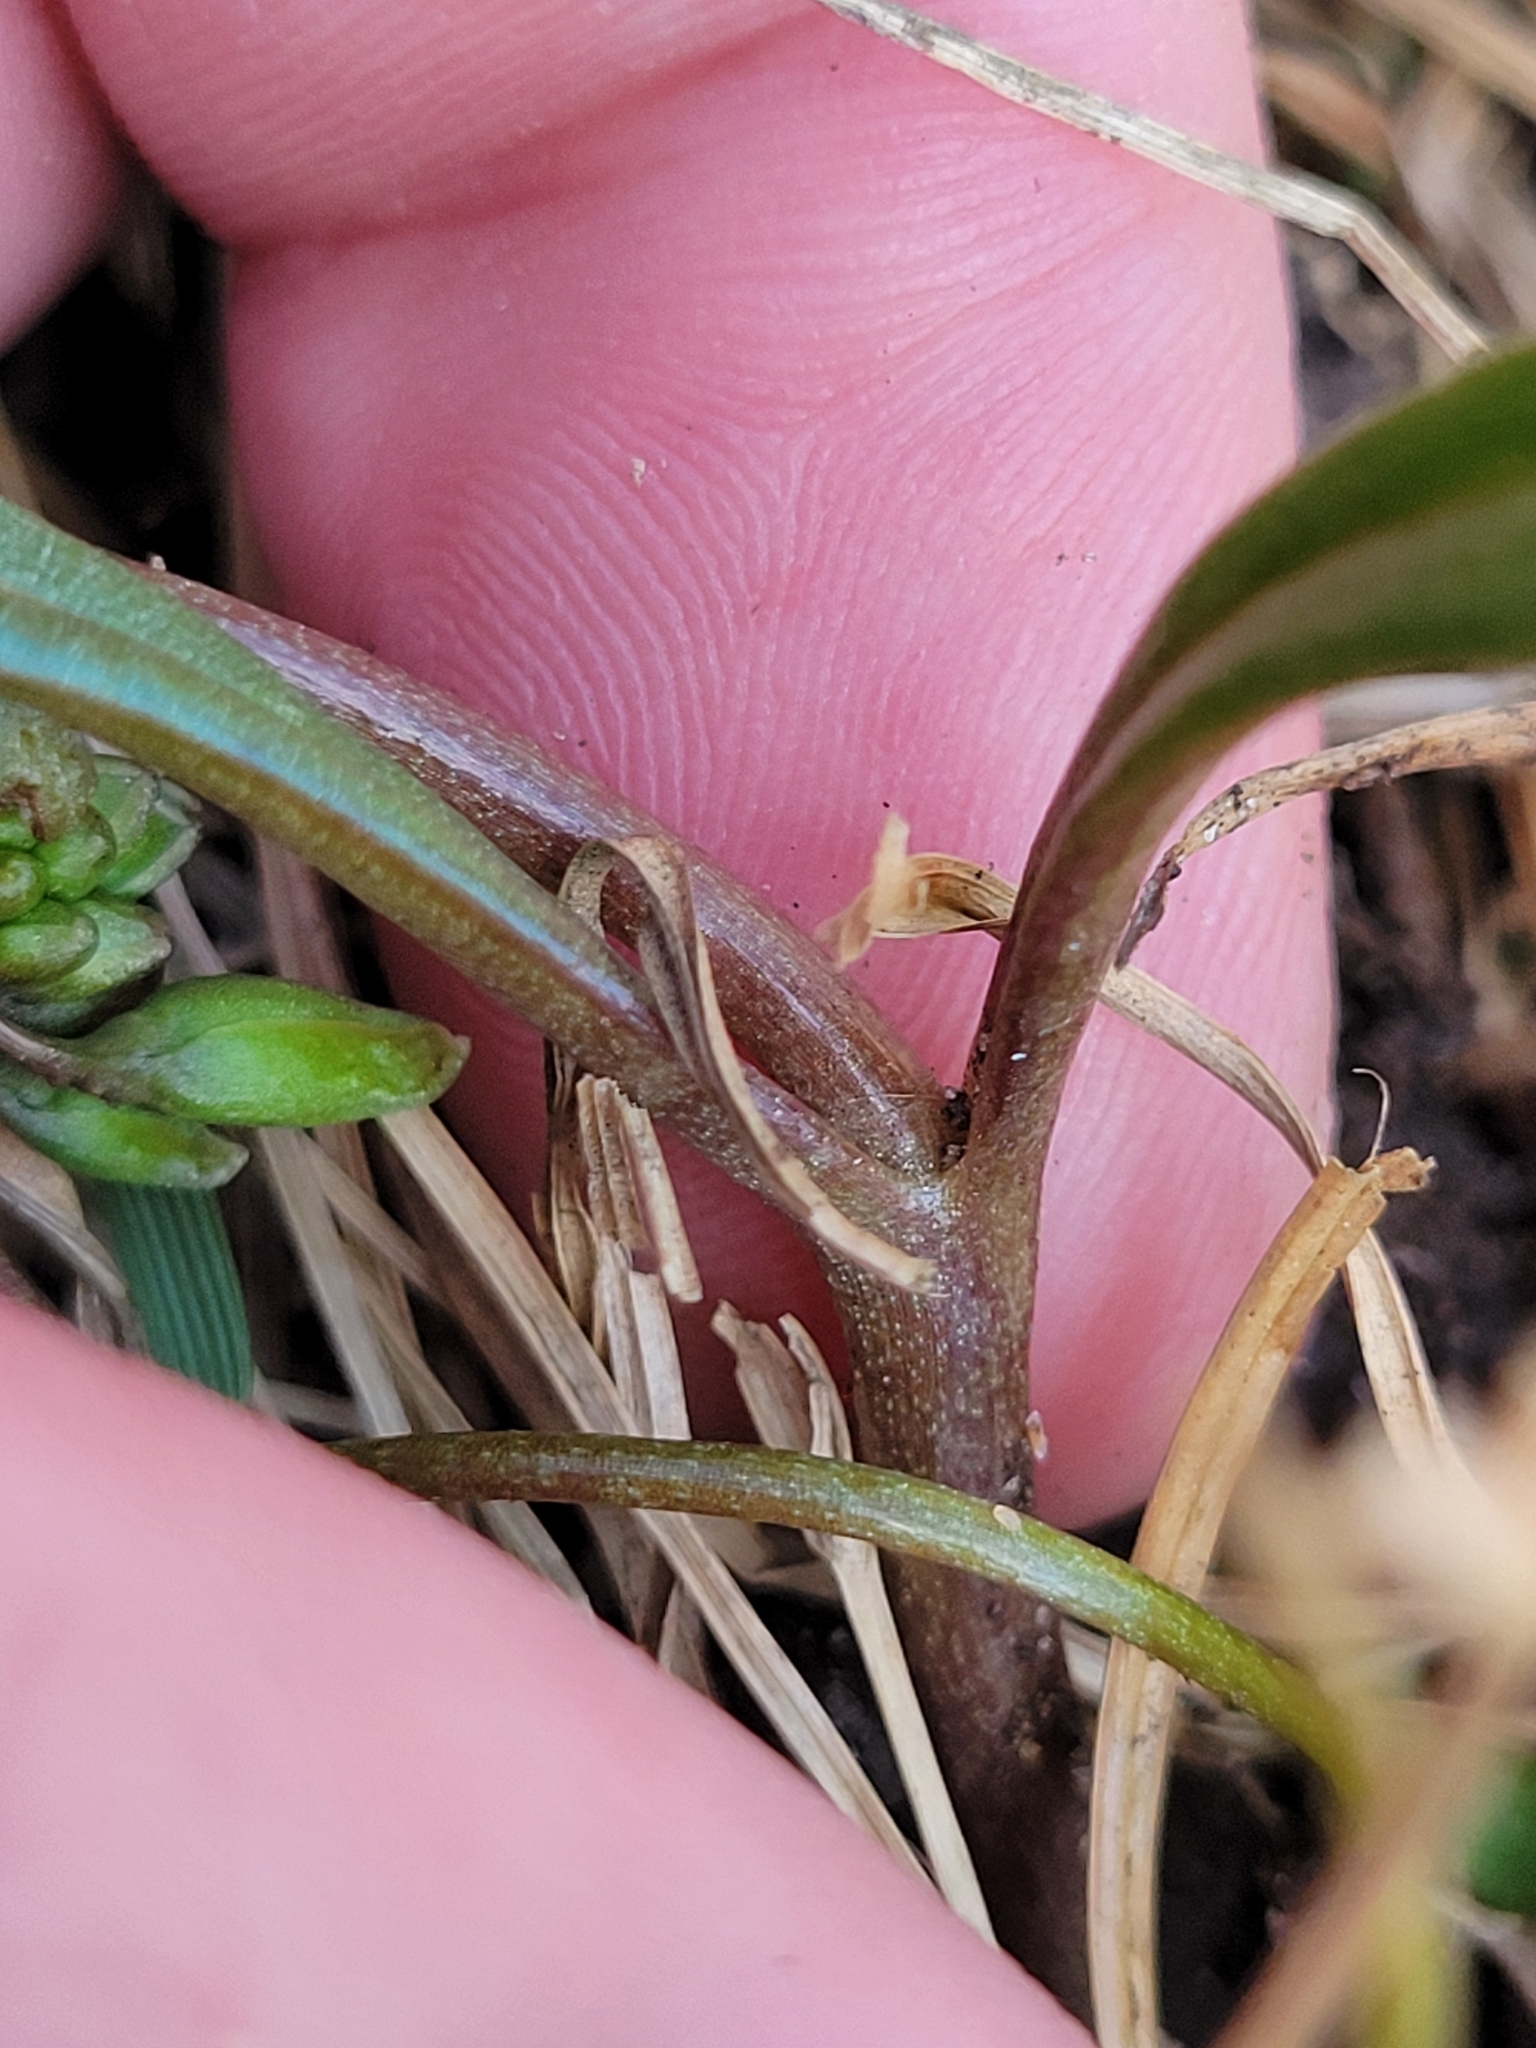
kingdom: Plantae
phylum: Tracheophyta
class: Magnoliopsida
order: Caryophyllales
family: Montiaceae
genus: Claytonia
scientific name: Claytonia virginica
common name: Virginia springbeauty
